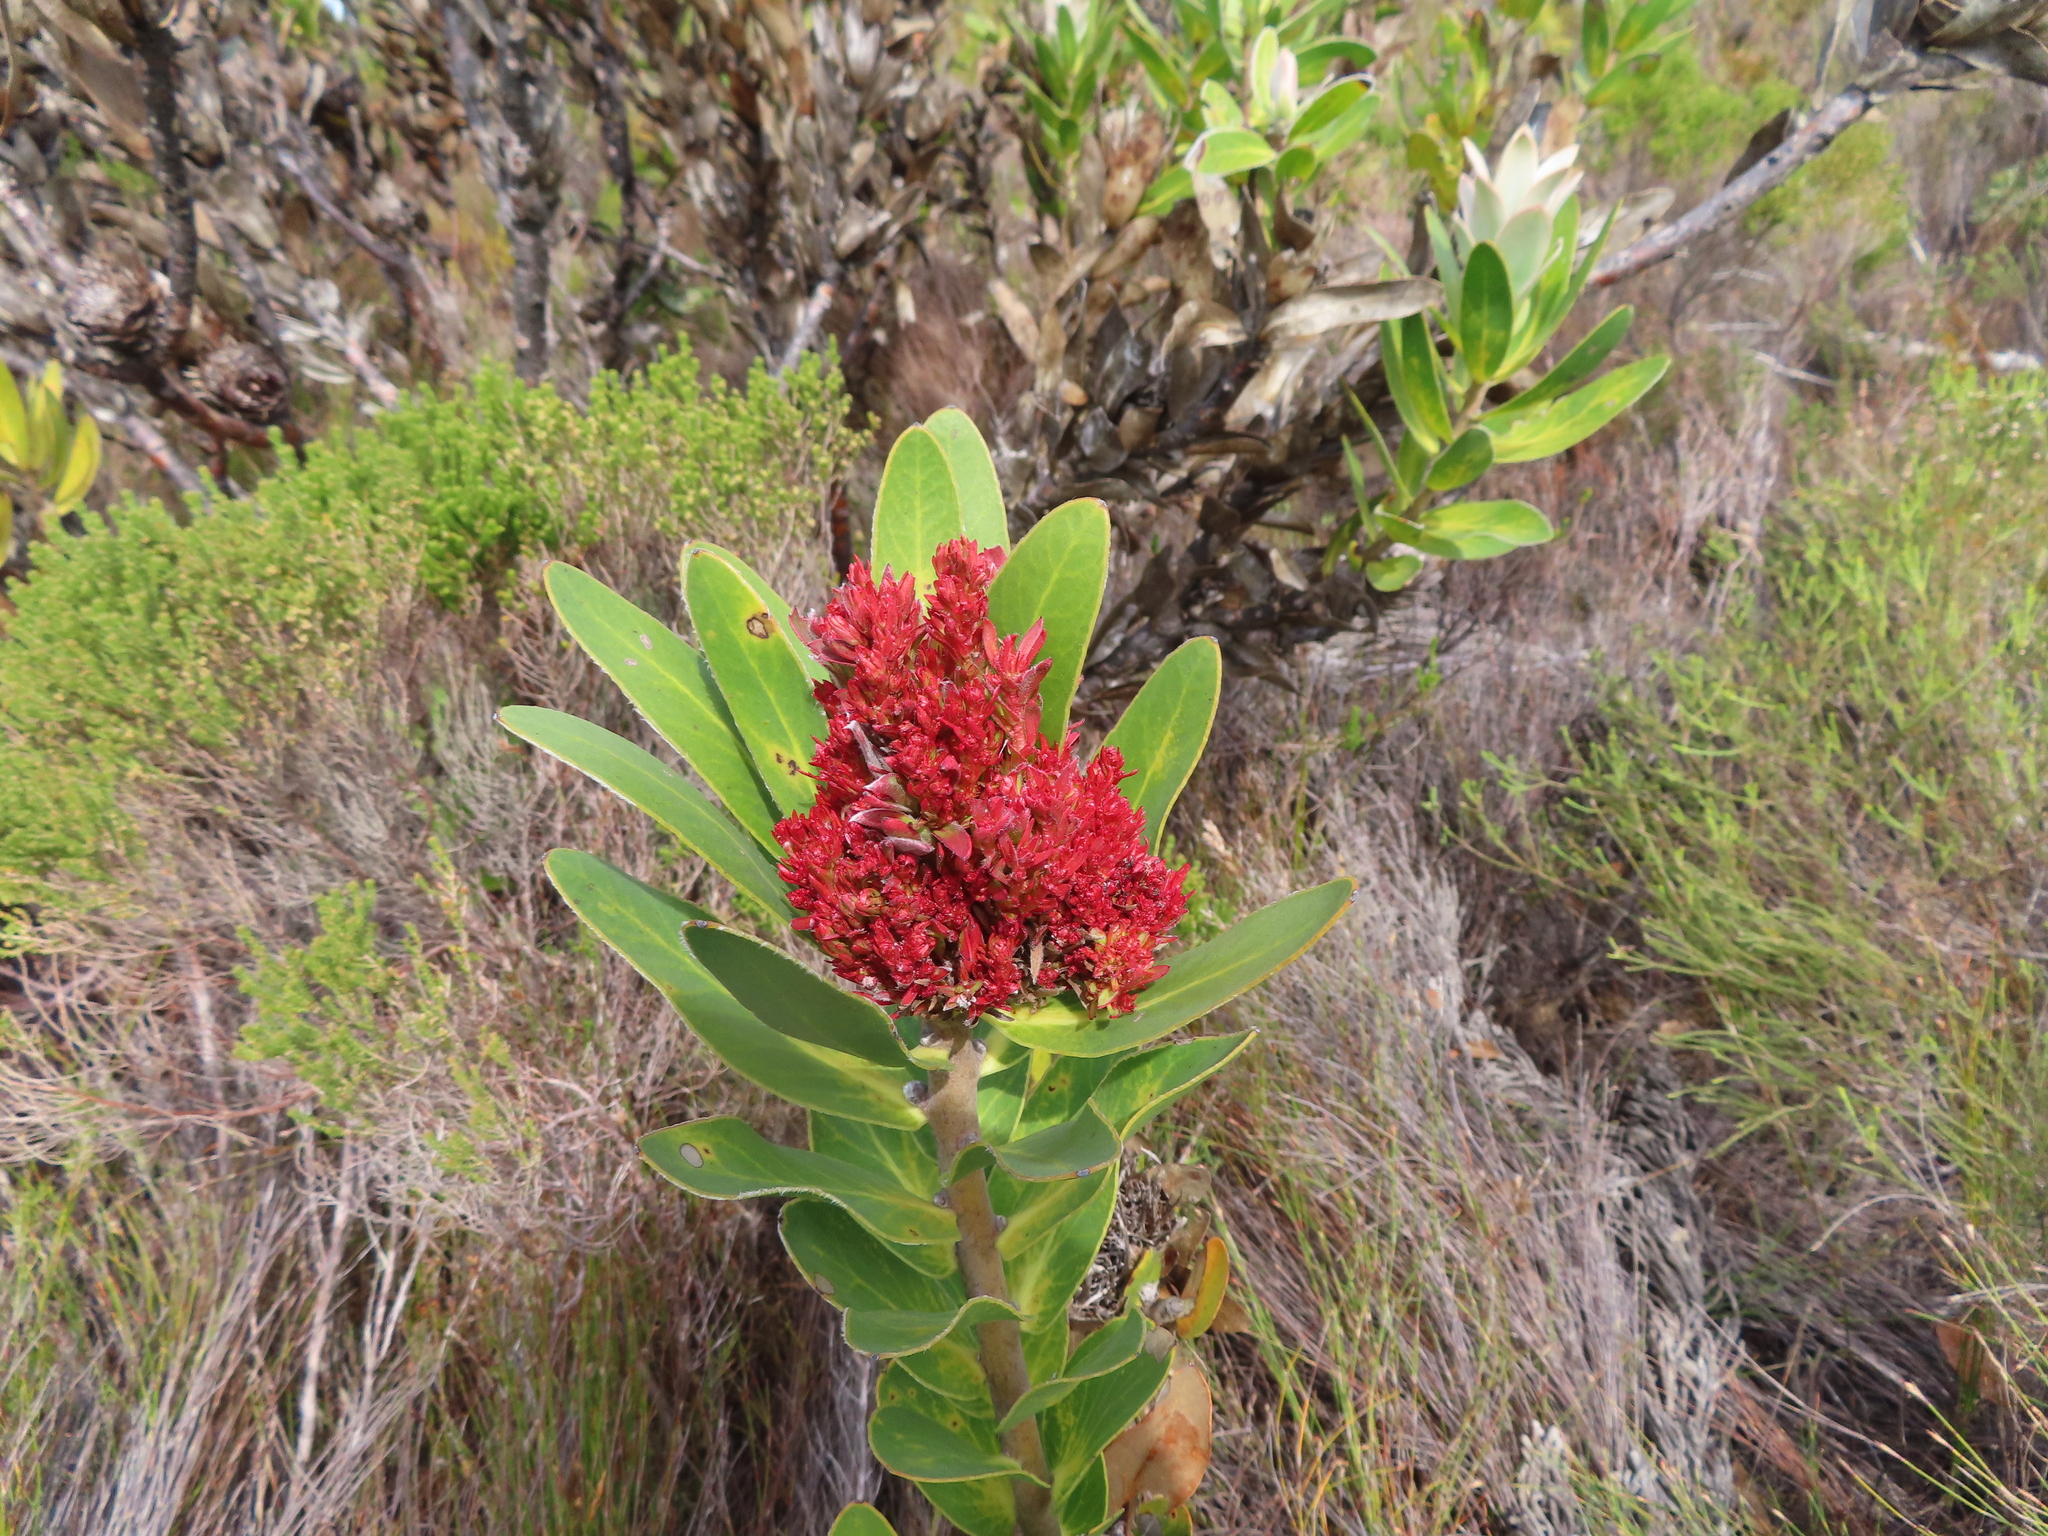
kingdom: Bacteria
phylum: Firmicutes
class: Bacilli
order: Acholeplasmatales
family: Acholeplasmataceae
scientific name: Acholeplasmataceae
